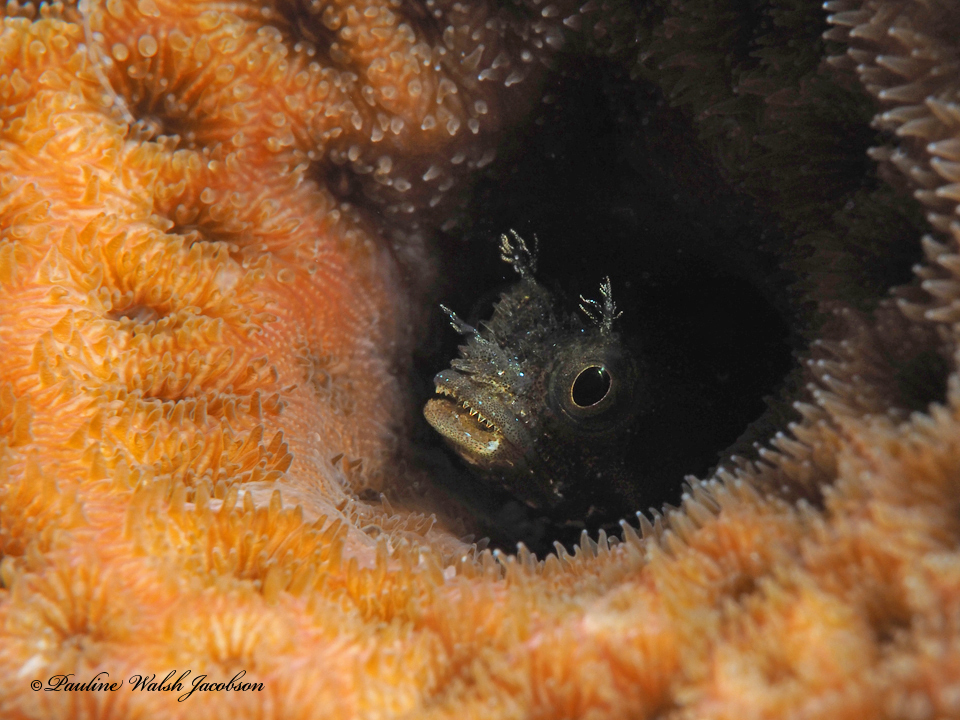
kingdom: Animalia
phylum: Chordata
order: Perciformes
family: Chaenopsidae
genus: Acanthemblemaria
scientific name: Acanthemblemaria spinosa
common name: Spinyhead blenny
